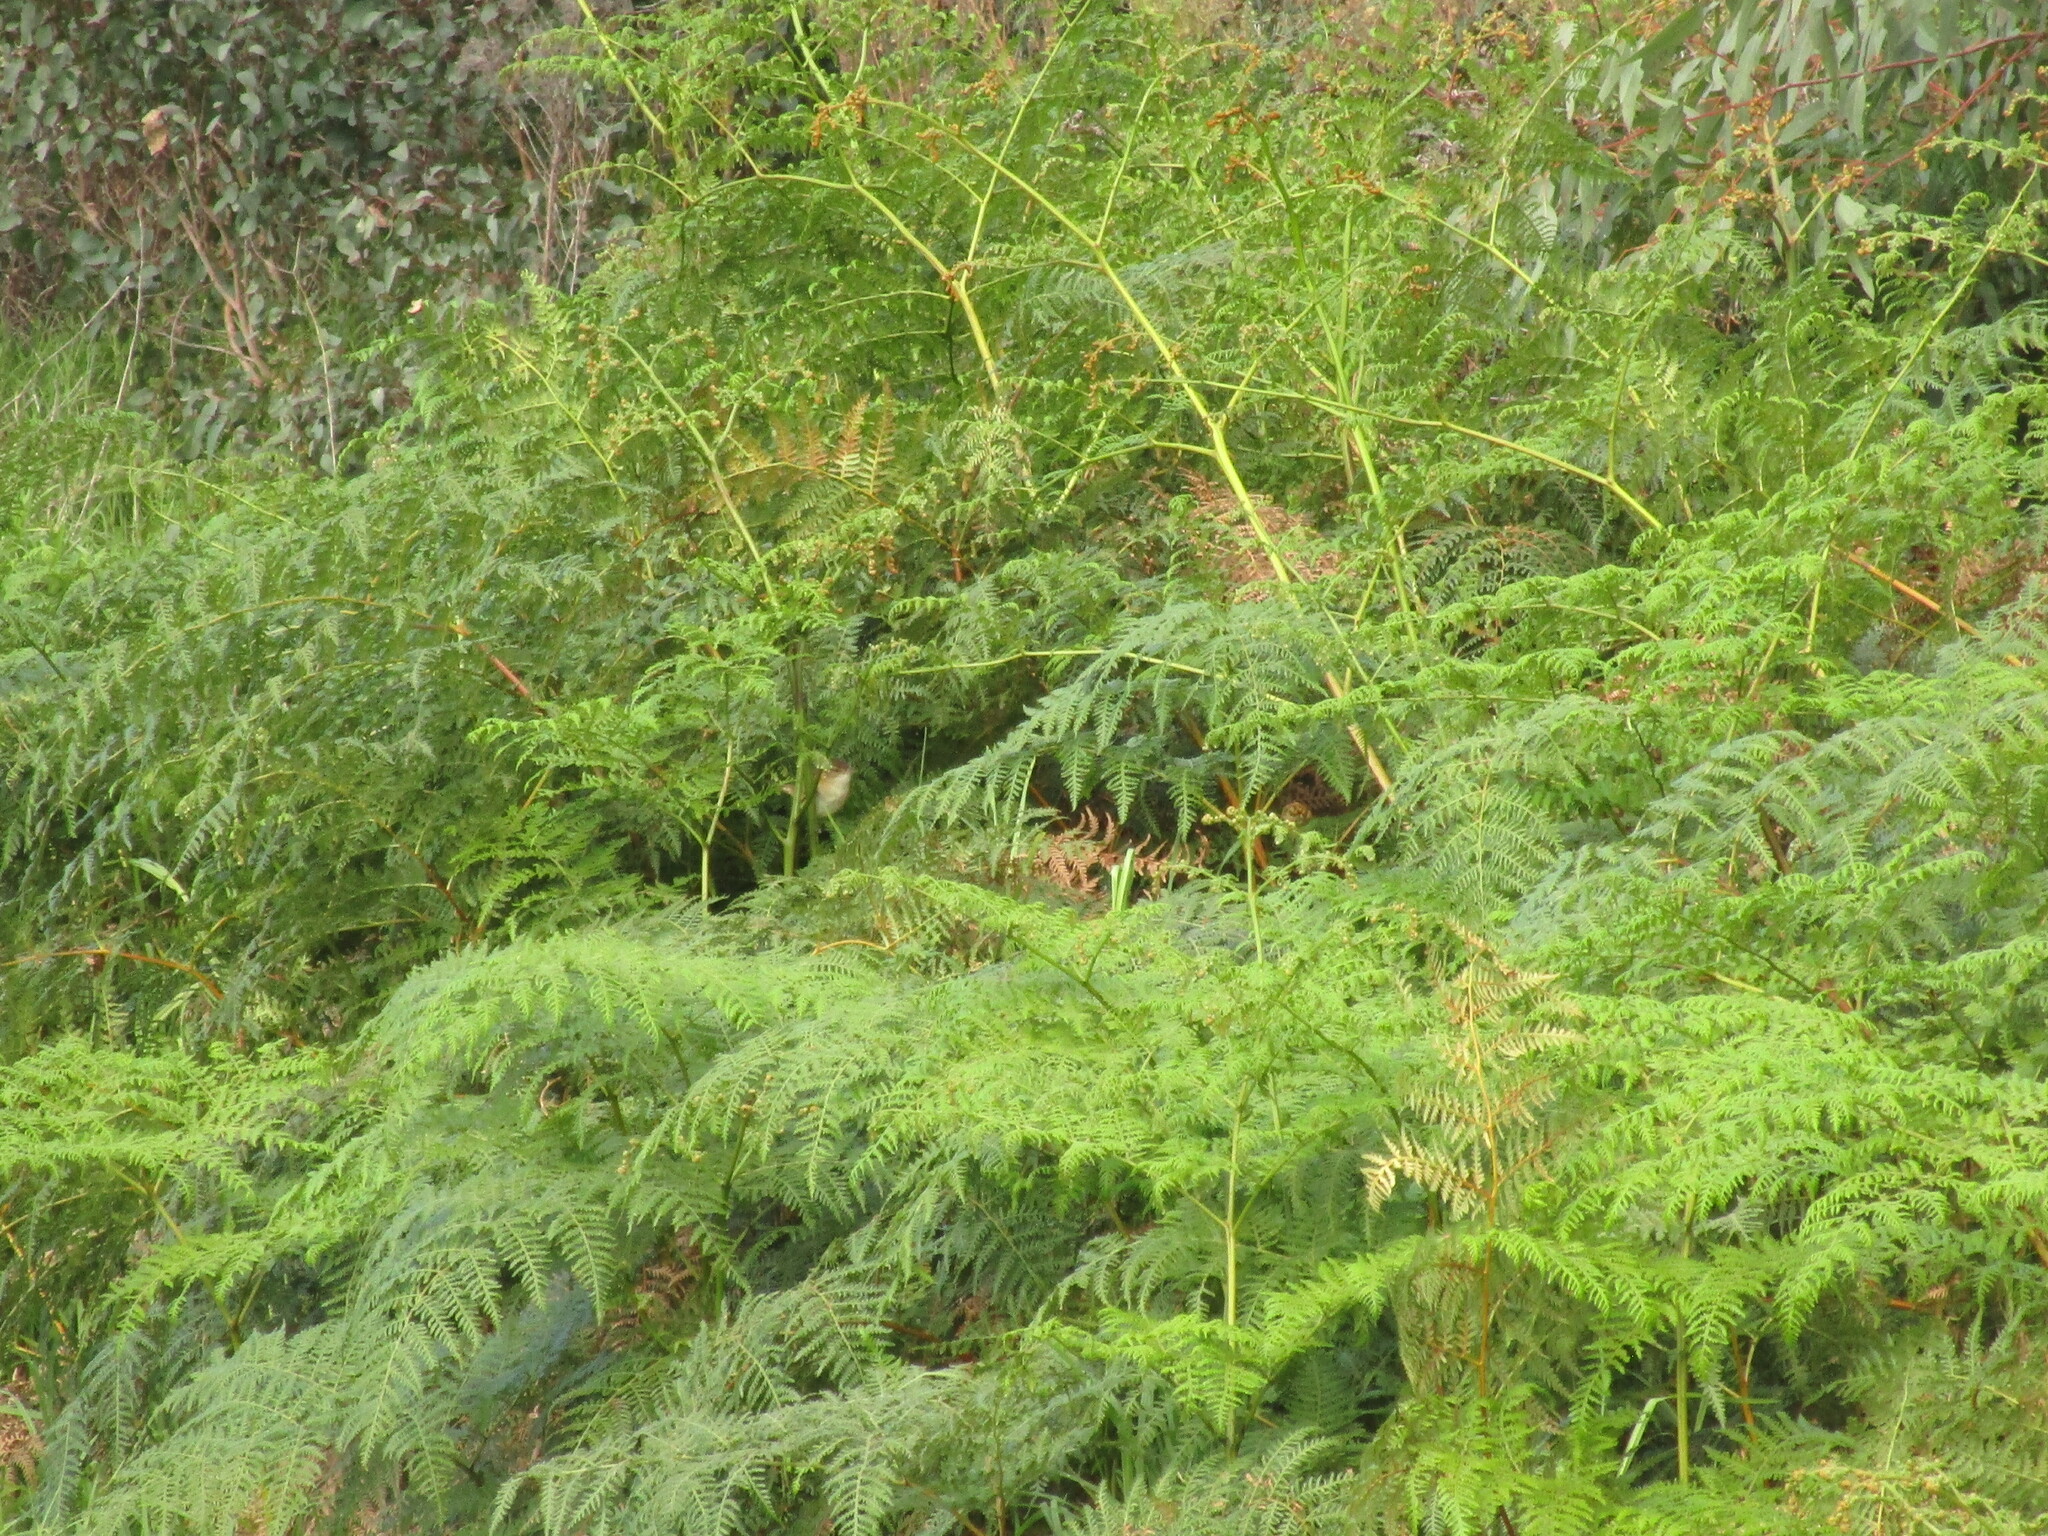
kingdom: Animalia
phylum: Chordata
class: Aves
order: Passeriformes
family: Acrocephalidae
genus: Acrocephalus
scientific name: Acrocephalus australis
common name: Australian reed warbler
